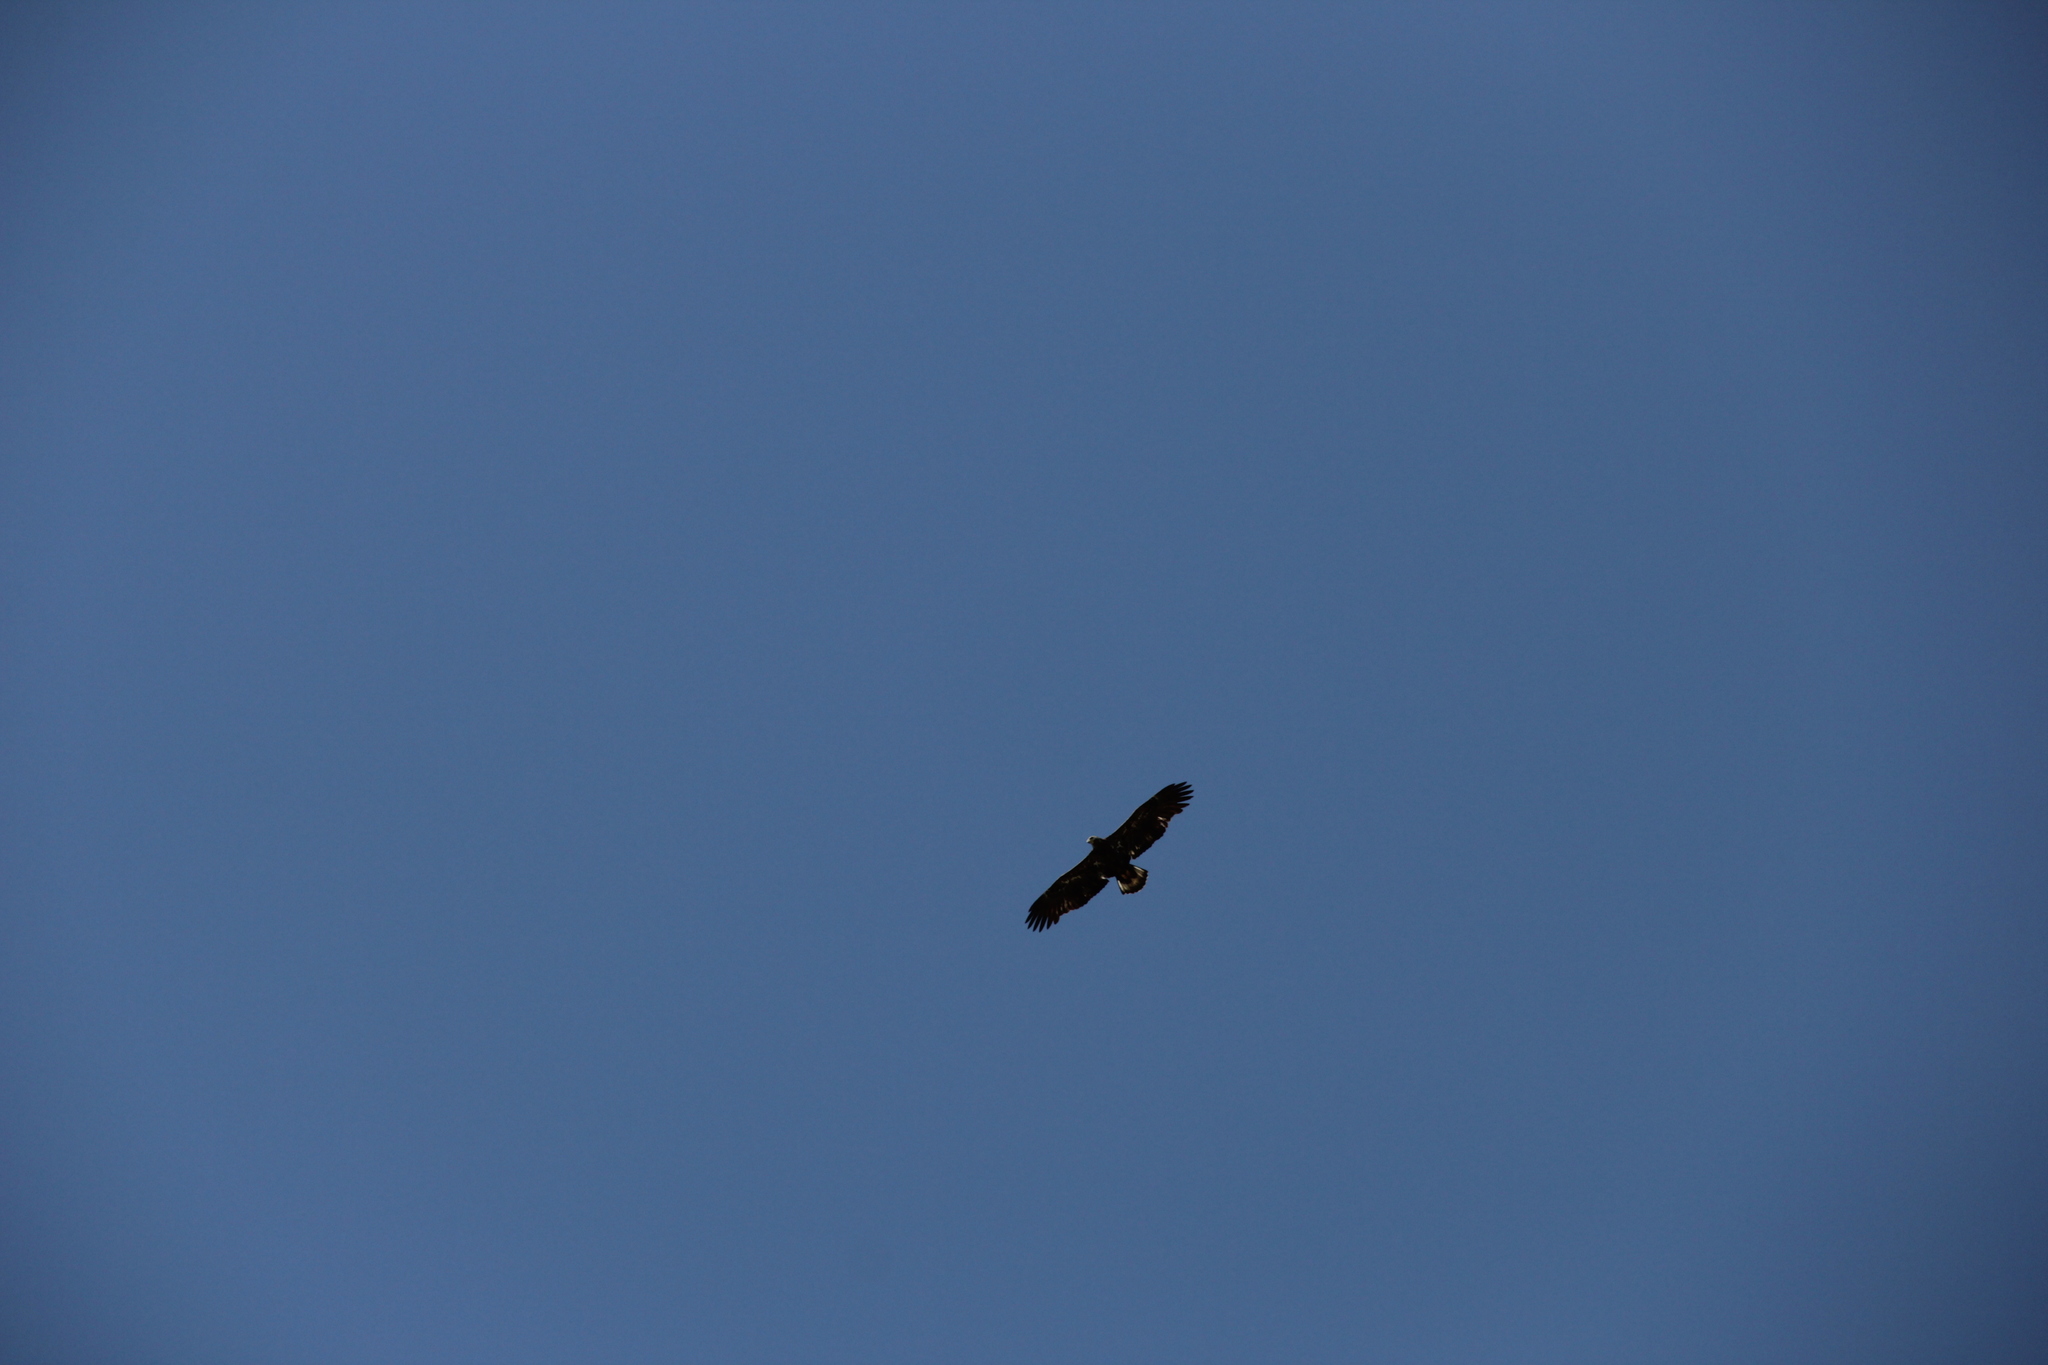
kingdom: Animalia
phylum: Chordata
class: Aves
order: Accipitriformes
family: Accipitridae
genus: Haliaeetus
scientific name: Haliaeetus leucocephalus
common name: Bald eagle
